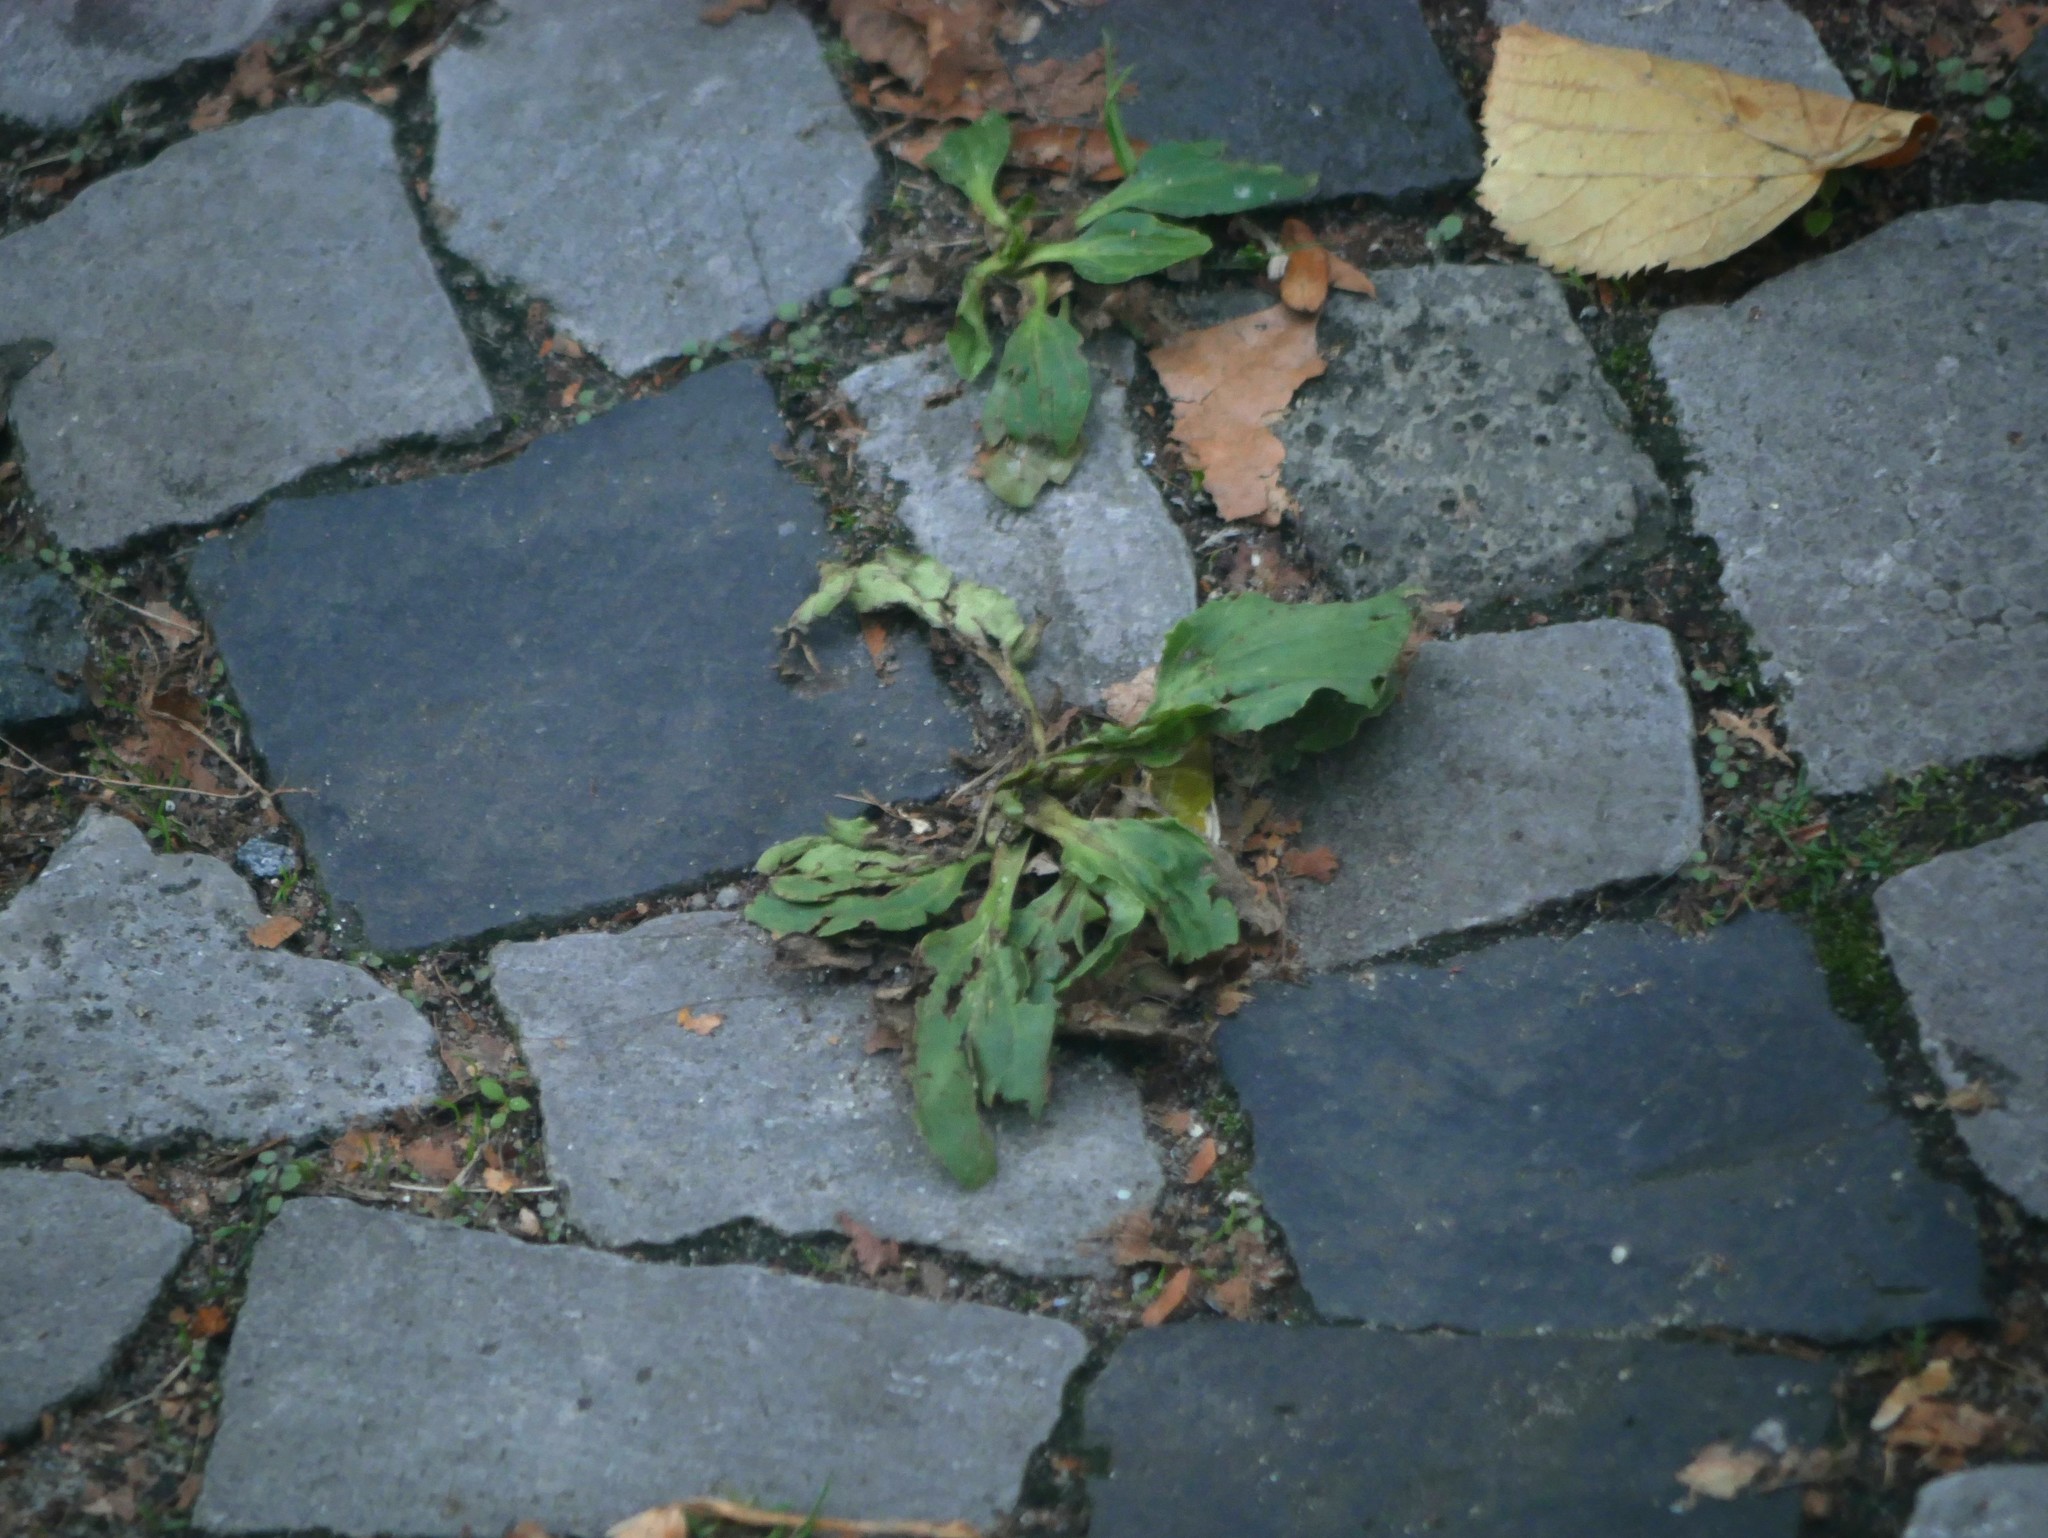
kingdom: Plantae
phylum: Tracheophyta
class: Magnoliopsida
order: Lamiales
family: Plantaginaceae
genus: Plantago
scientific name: Plantago major
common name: Common plantain
